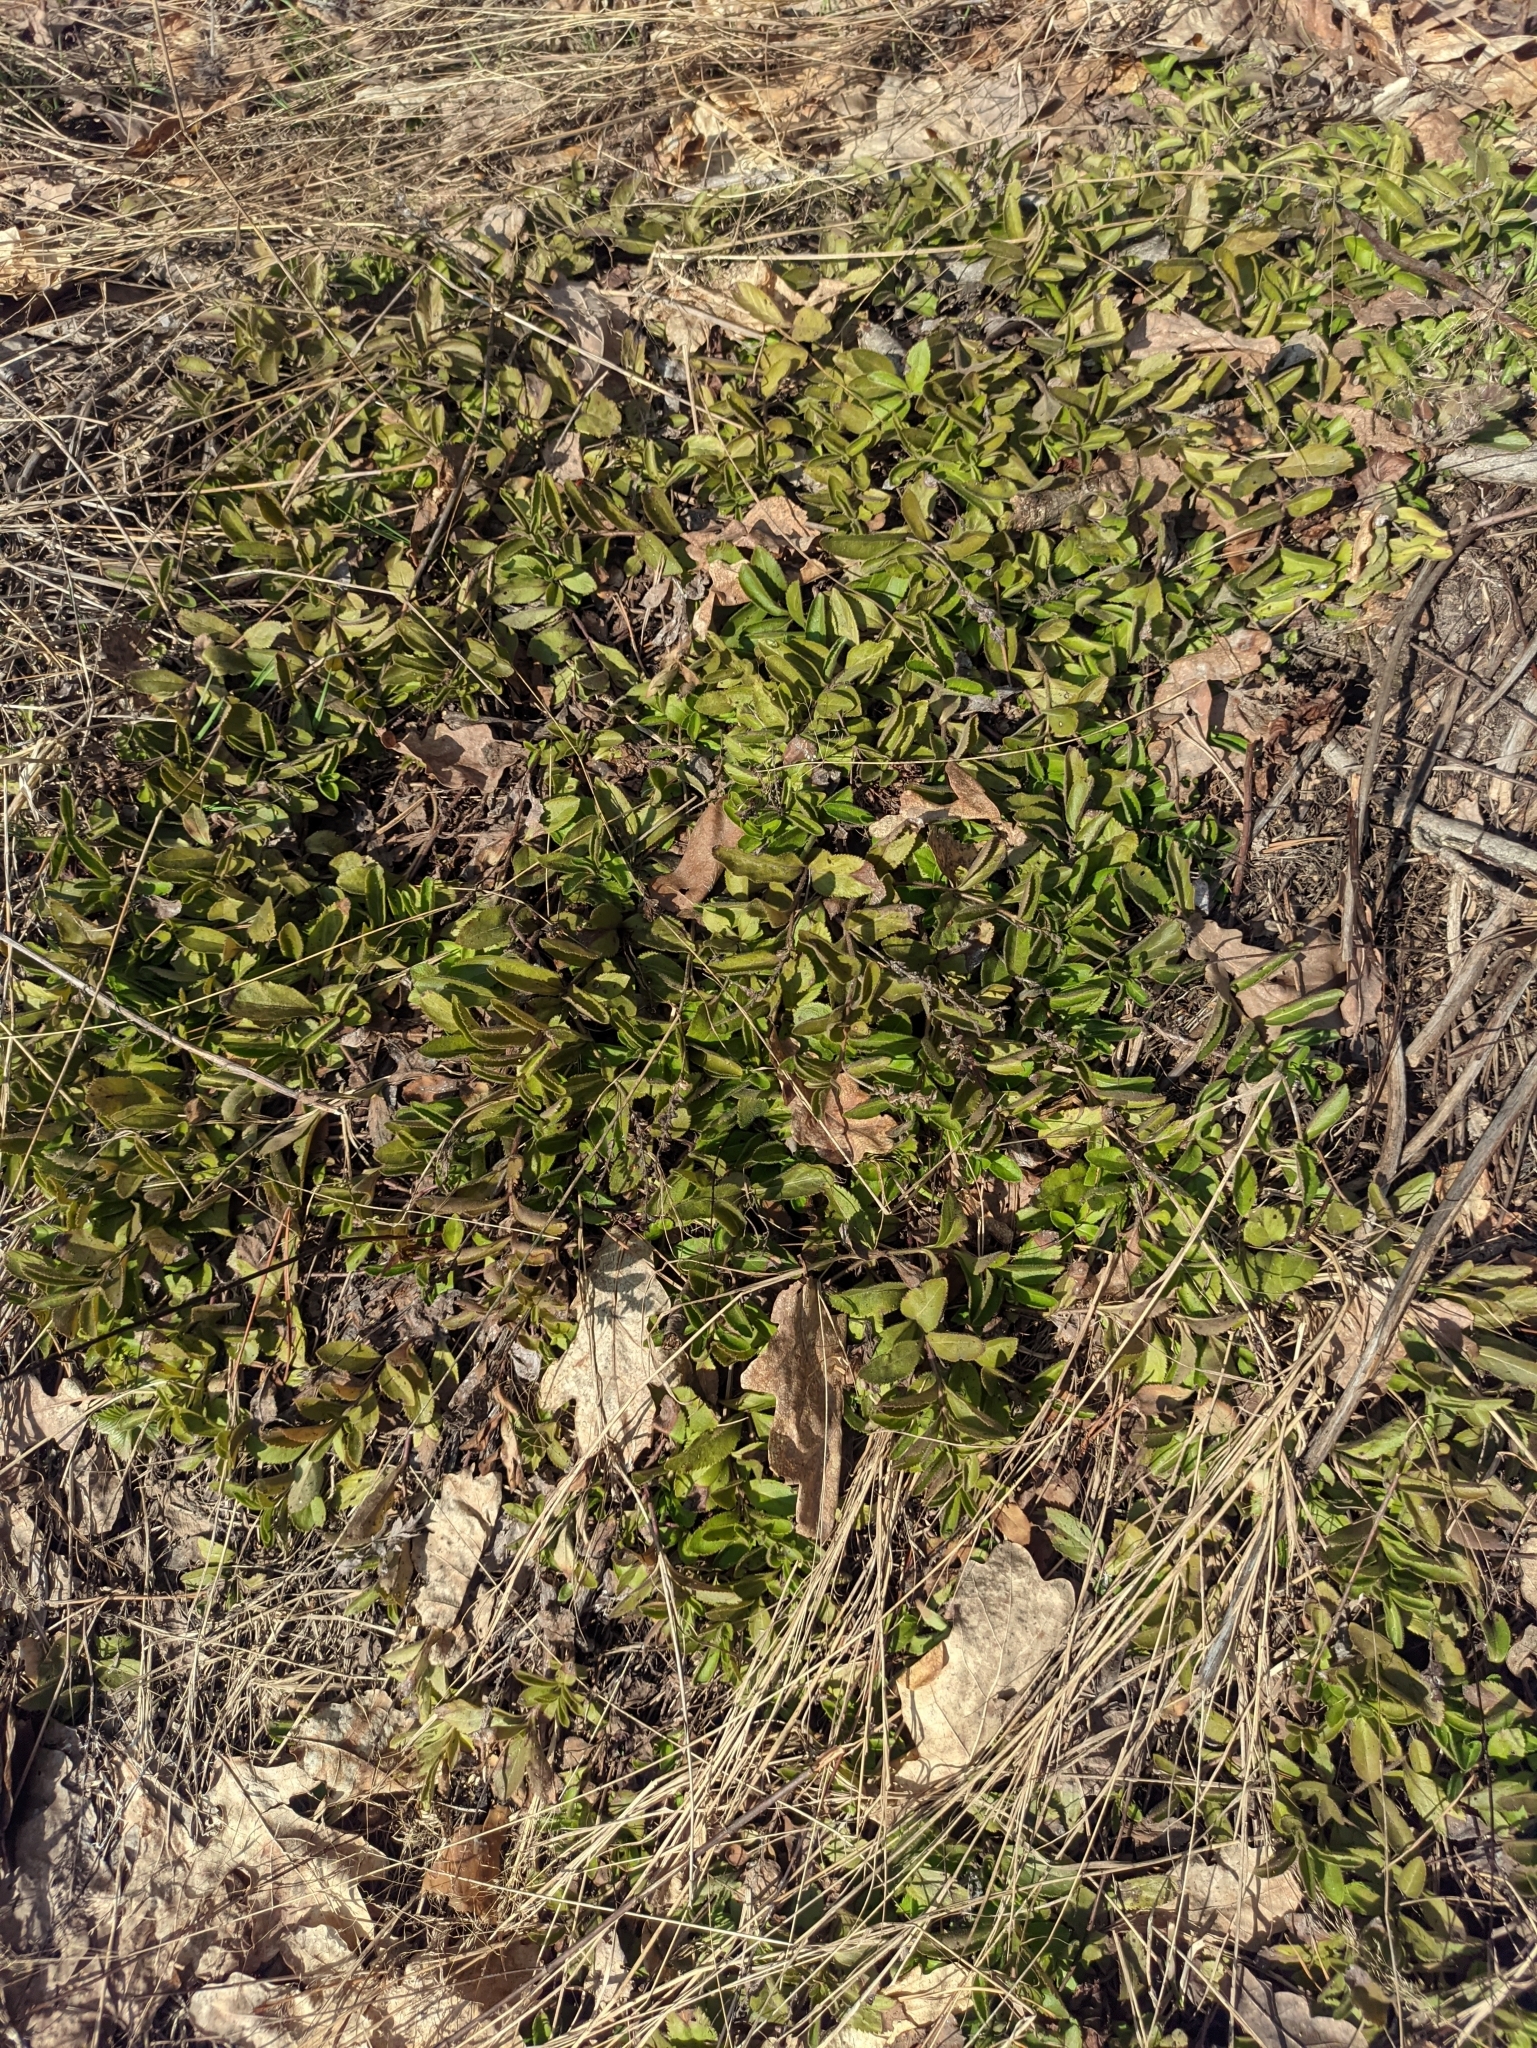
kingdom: Plantae
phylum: Tracheophyta
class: Magnoliopsida
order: Lamiales
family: Plantaginaceae
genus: Veronica
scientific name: Veronica officinalis
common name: Common speedwell
